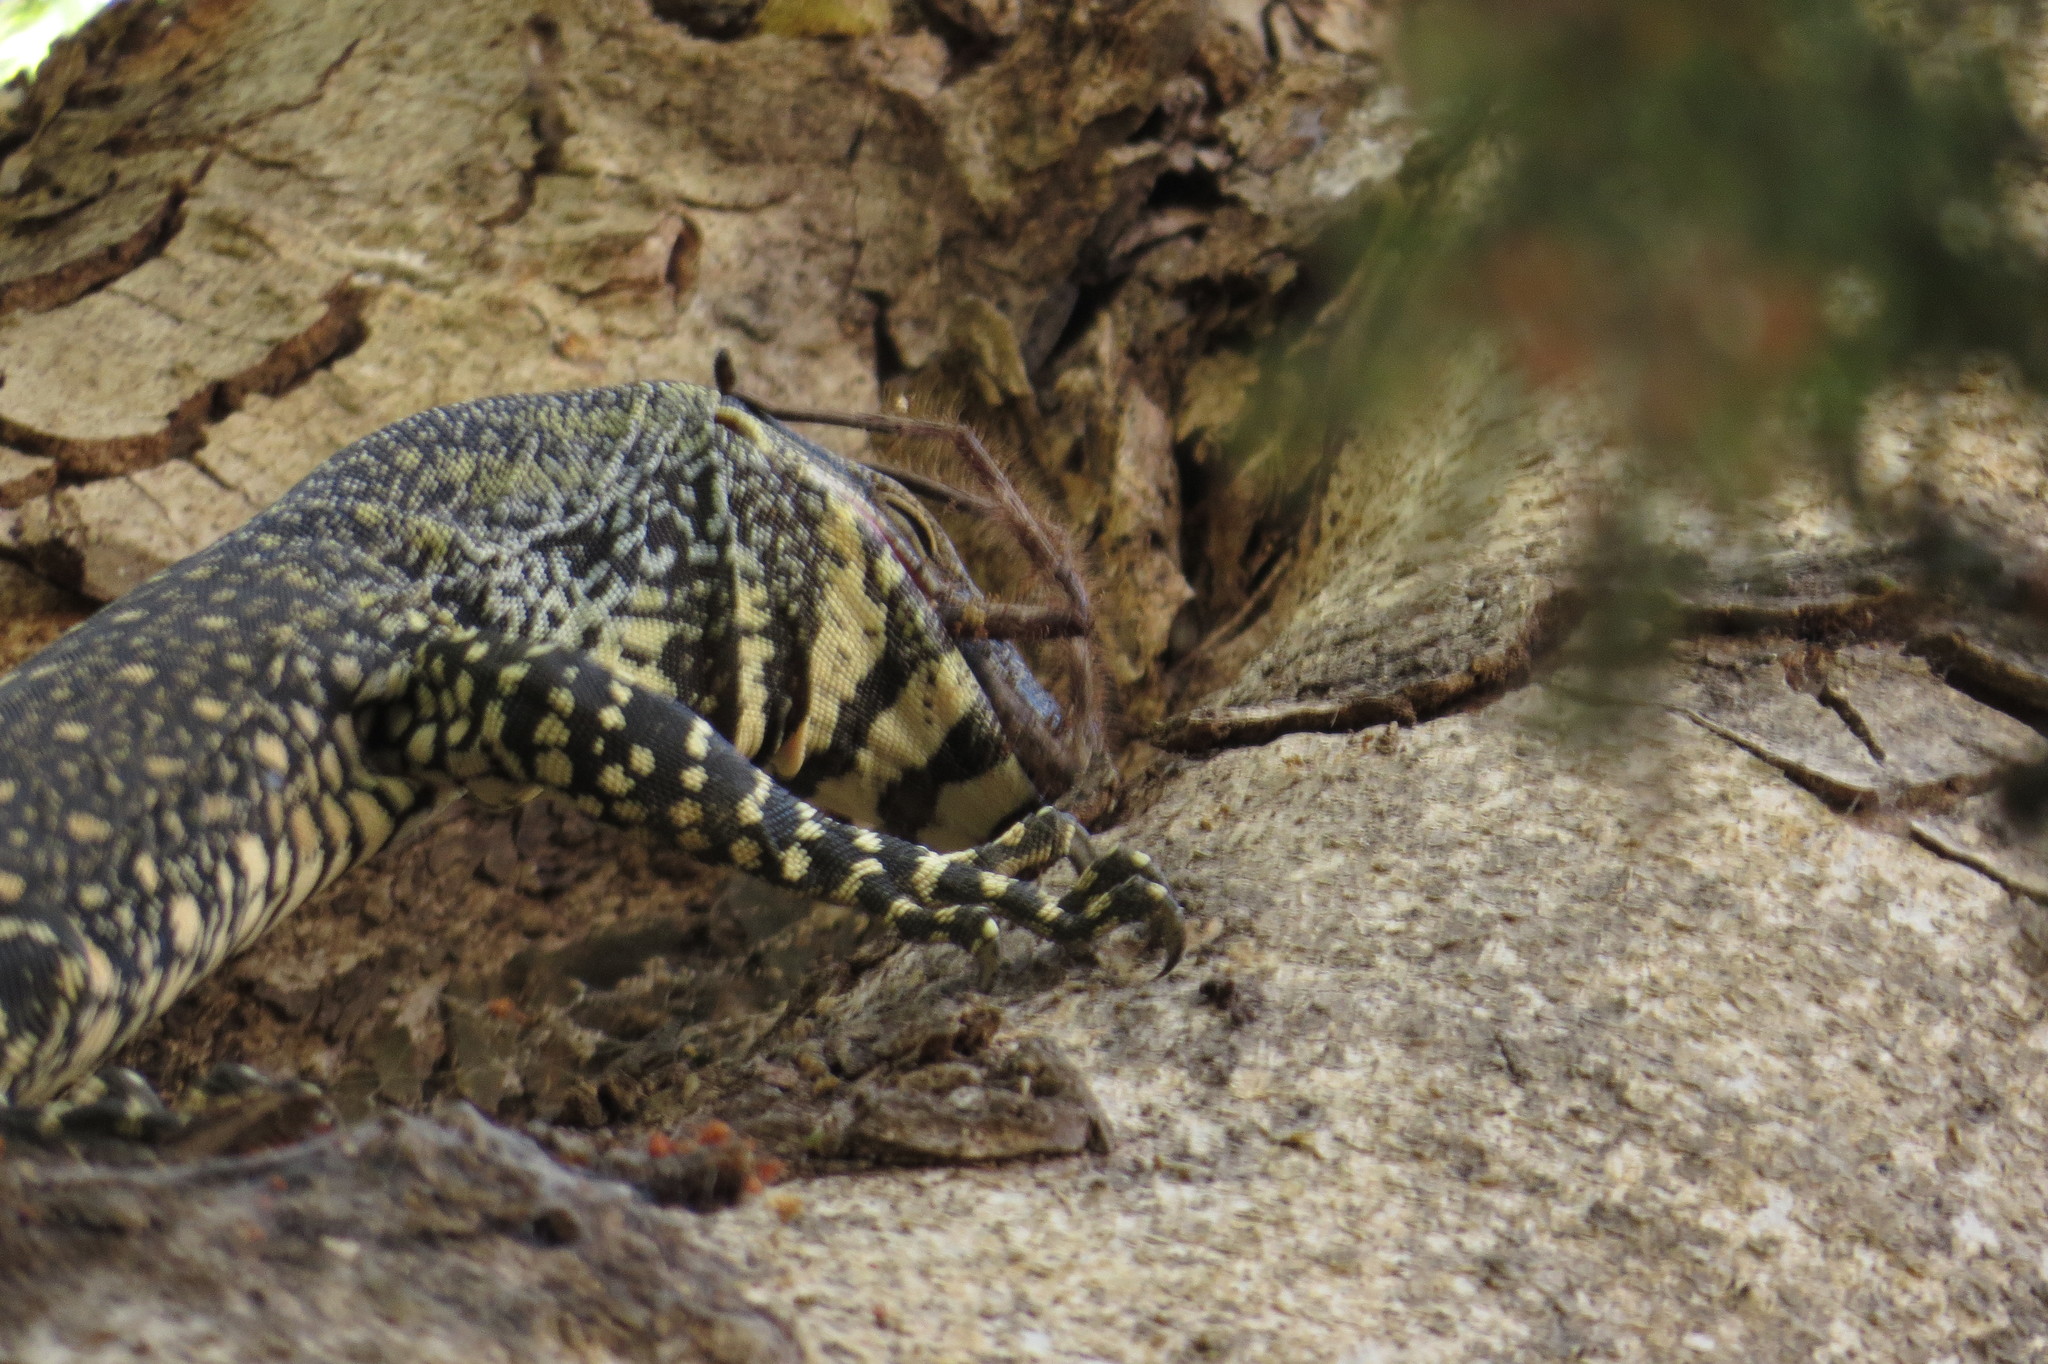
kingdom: Animalia
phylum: Chordata
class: Squamata
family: Varanidae
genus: Varanus
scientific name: Varanus varius
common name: Lace monitor
